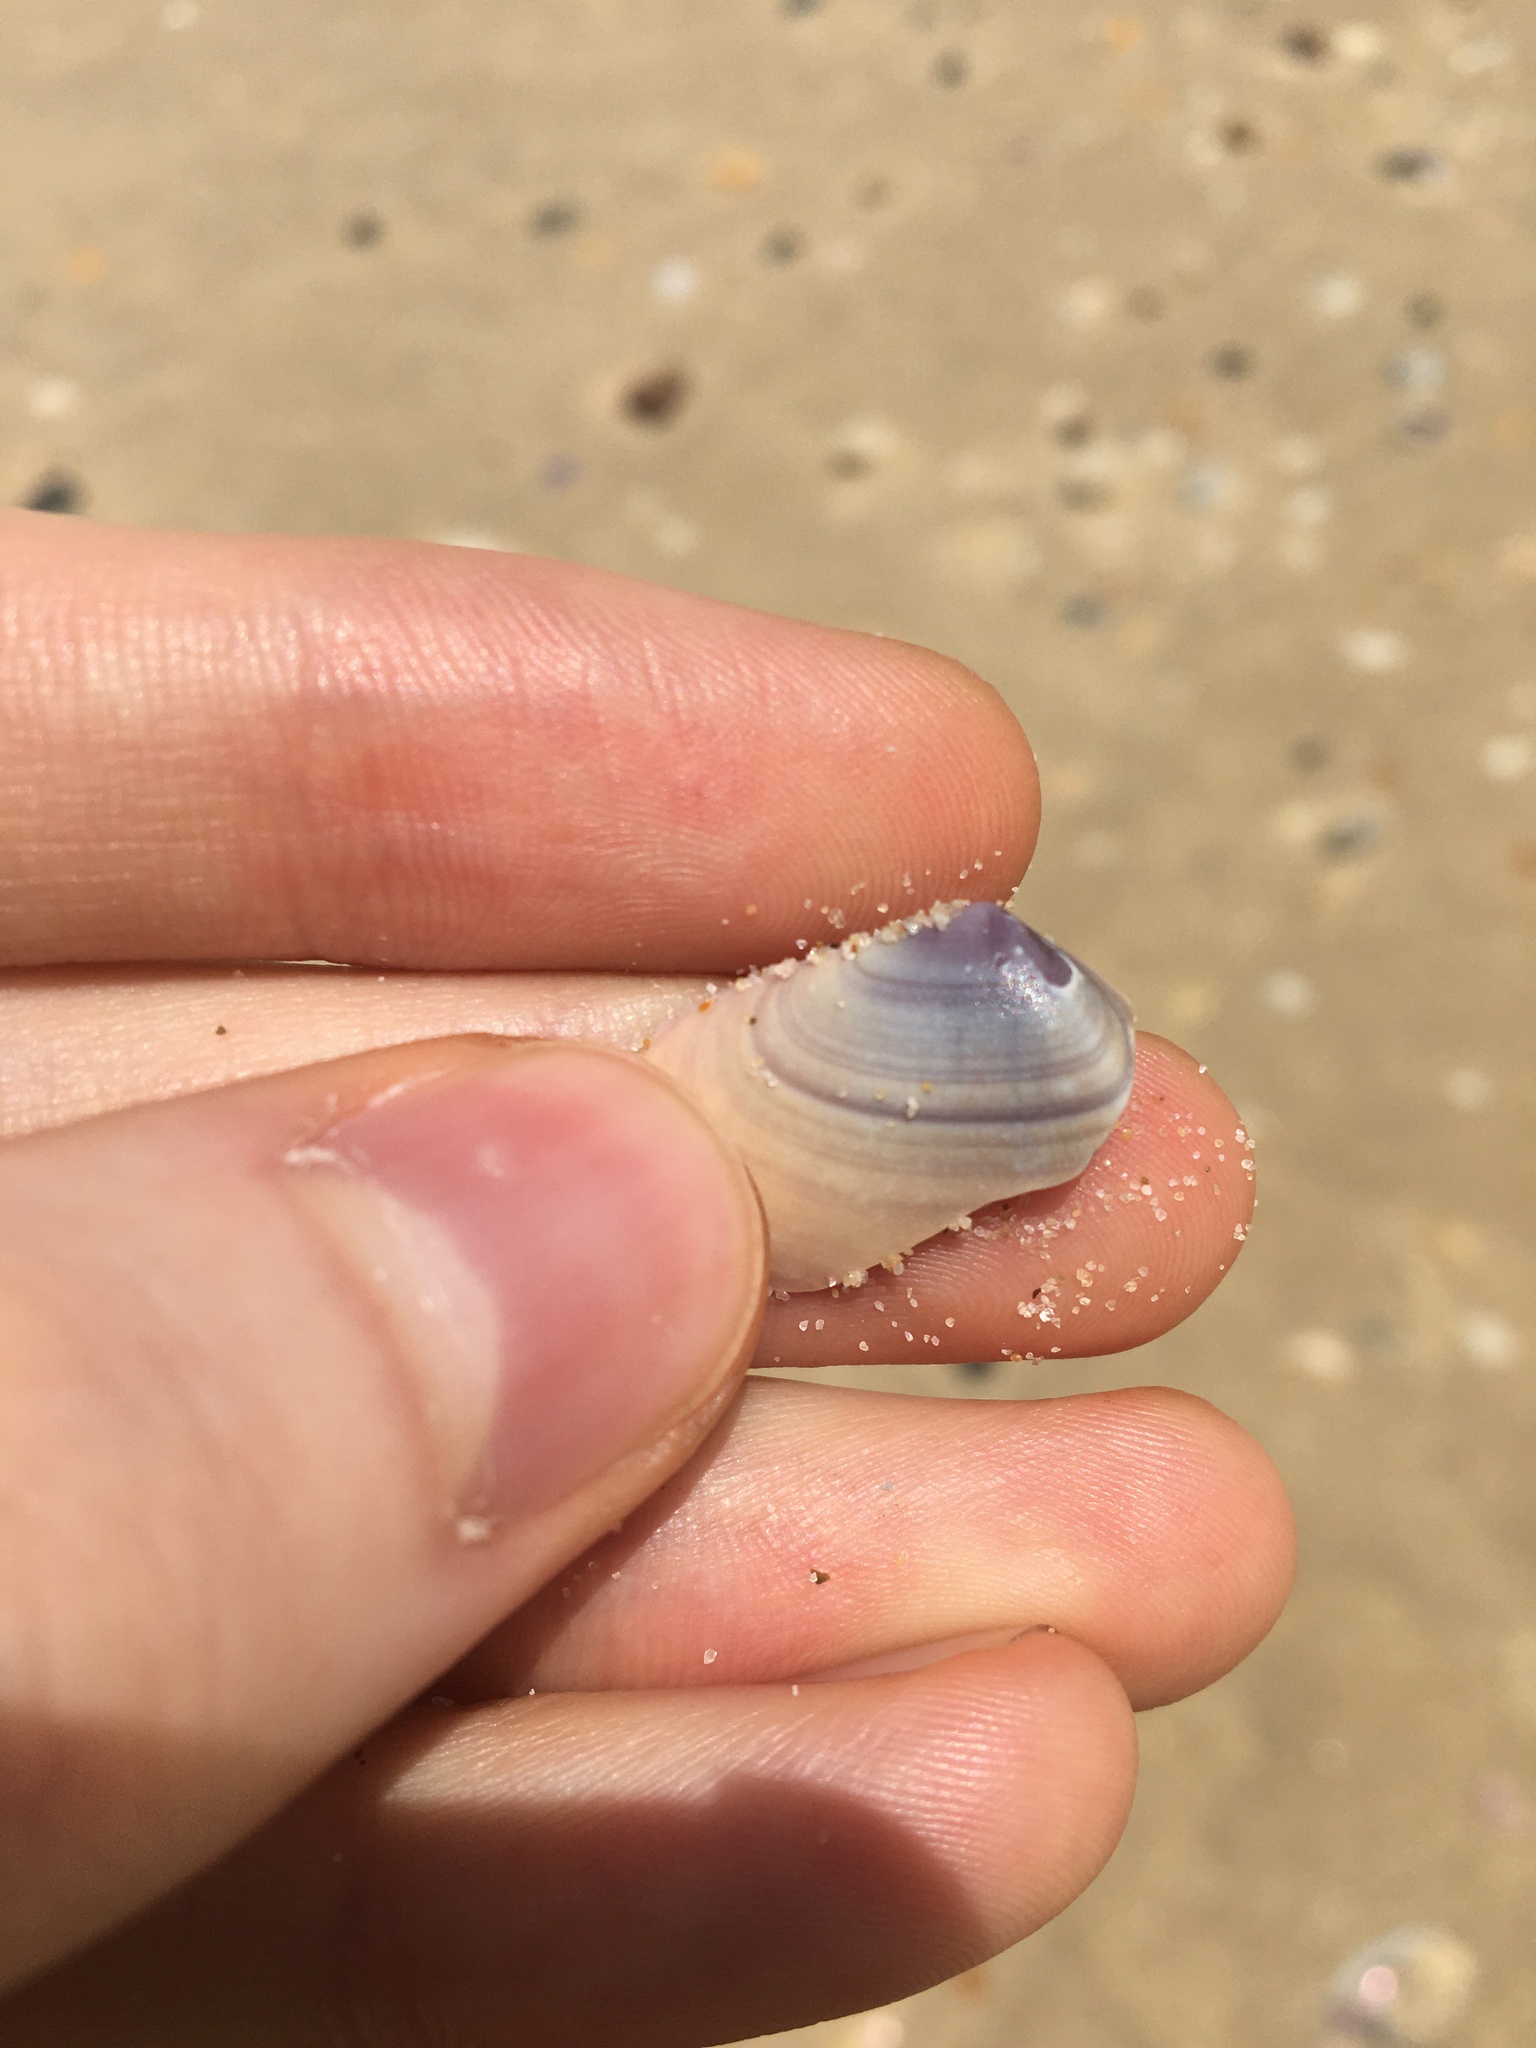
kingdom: Animalia
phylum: Mollusca
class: Bivalvia
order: Cardiida
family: Donacidae
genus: Latona
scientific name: Latona deltoides
